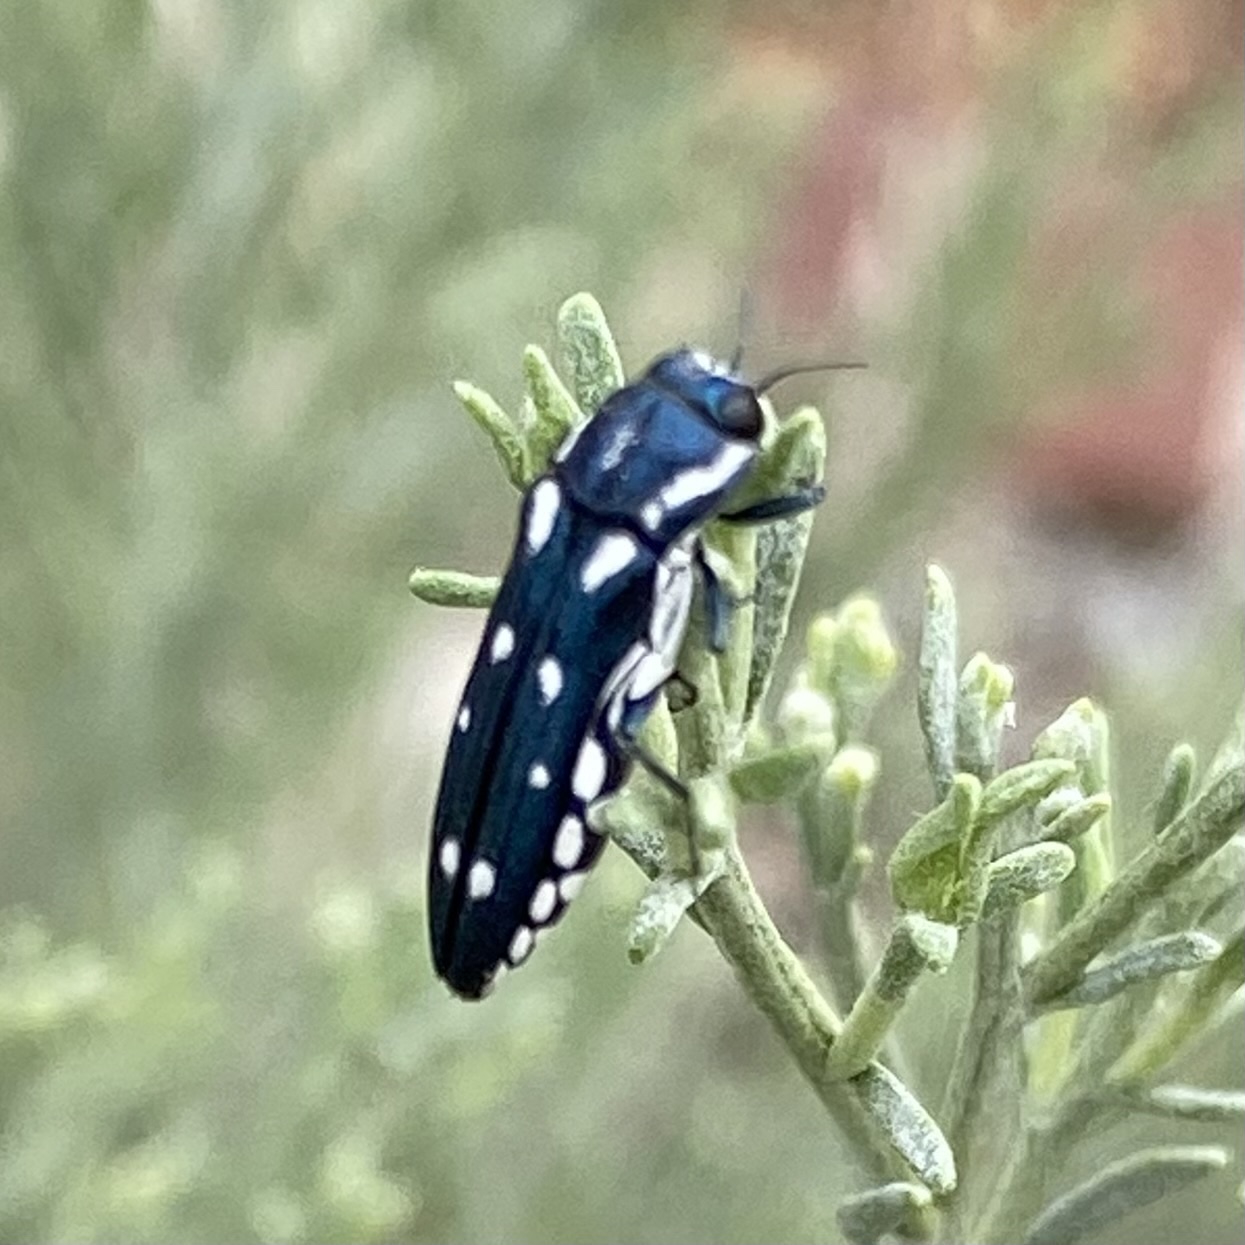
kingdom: Animalia
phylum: Arthropoda
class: Insecta
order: Coleoptera
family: Buprestidae
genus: Agrilus
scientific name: Agrilus walsinghami
